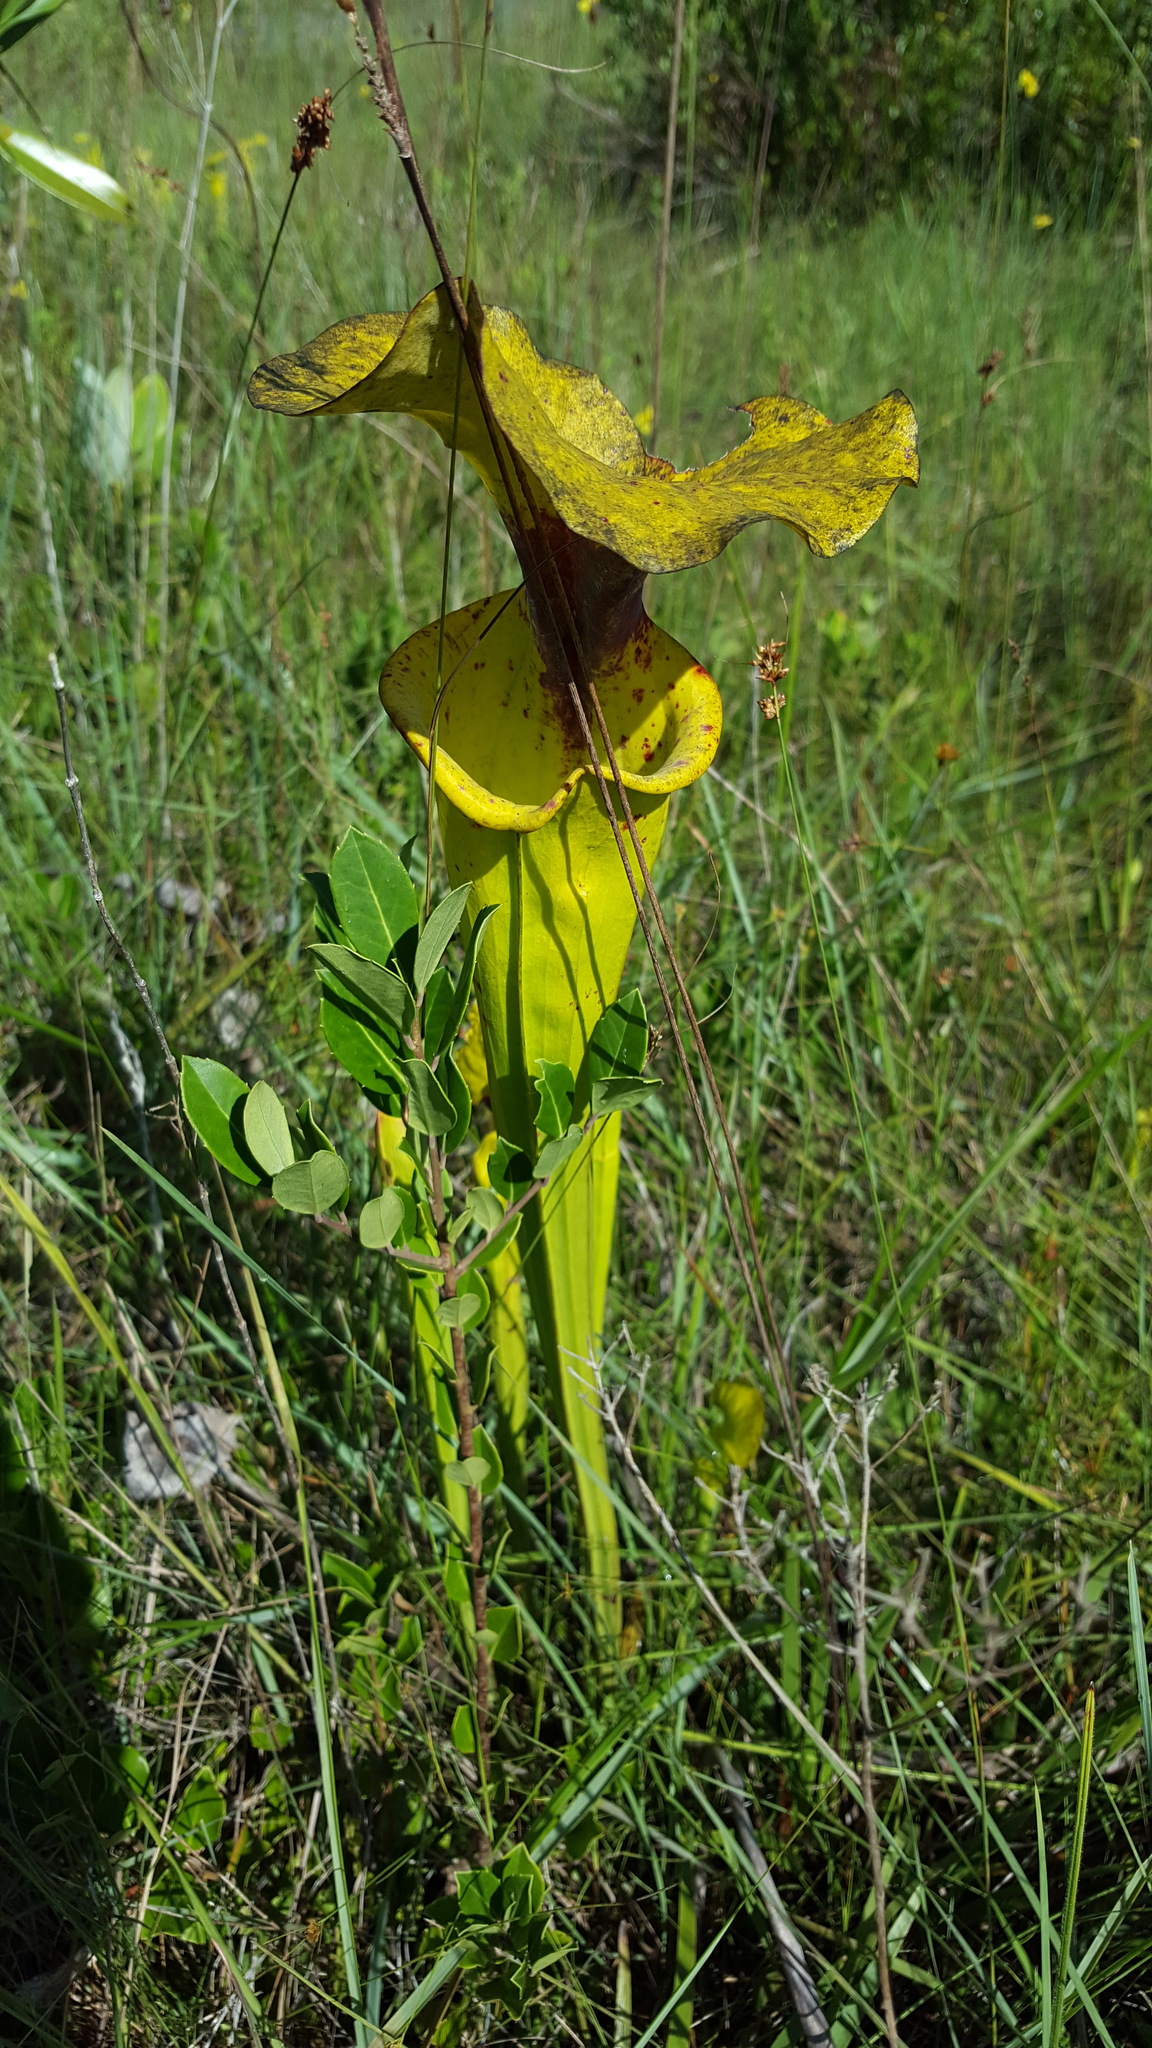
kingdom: Plantae
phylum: Tracheophyta
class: Magnoliopsida
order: Ericales
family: Sarraceniaceae
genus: Sarracenia
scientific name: Sarracenia flava
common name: Trumpets
